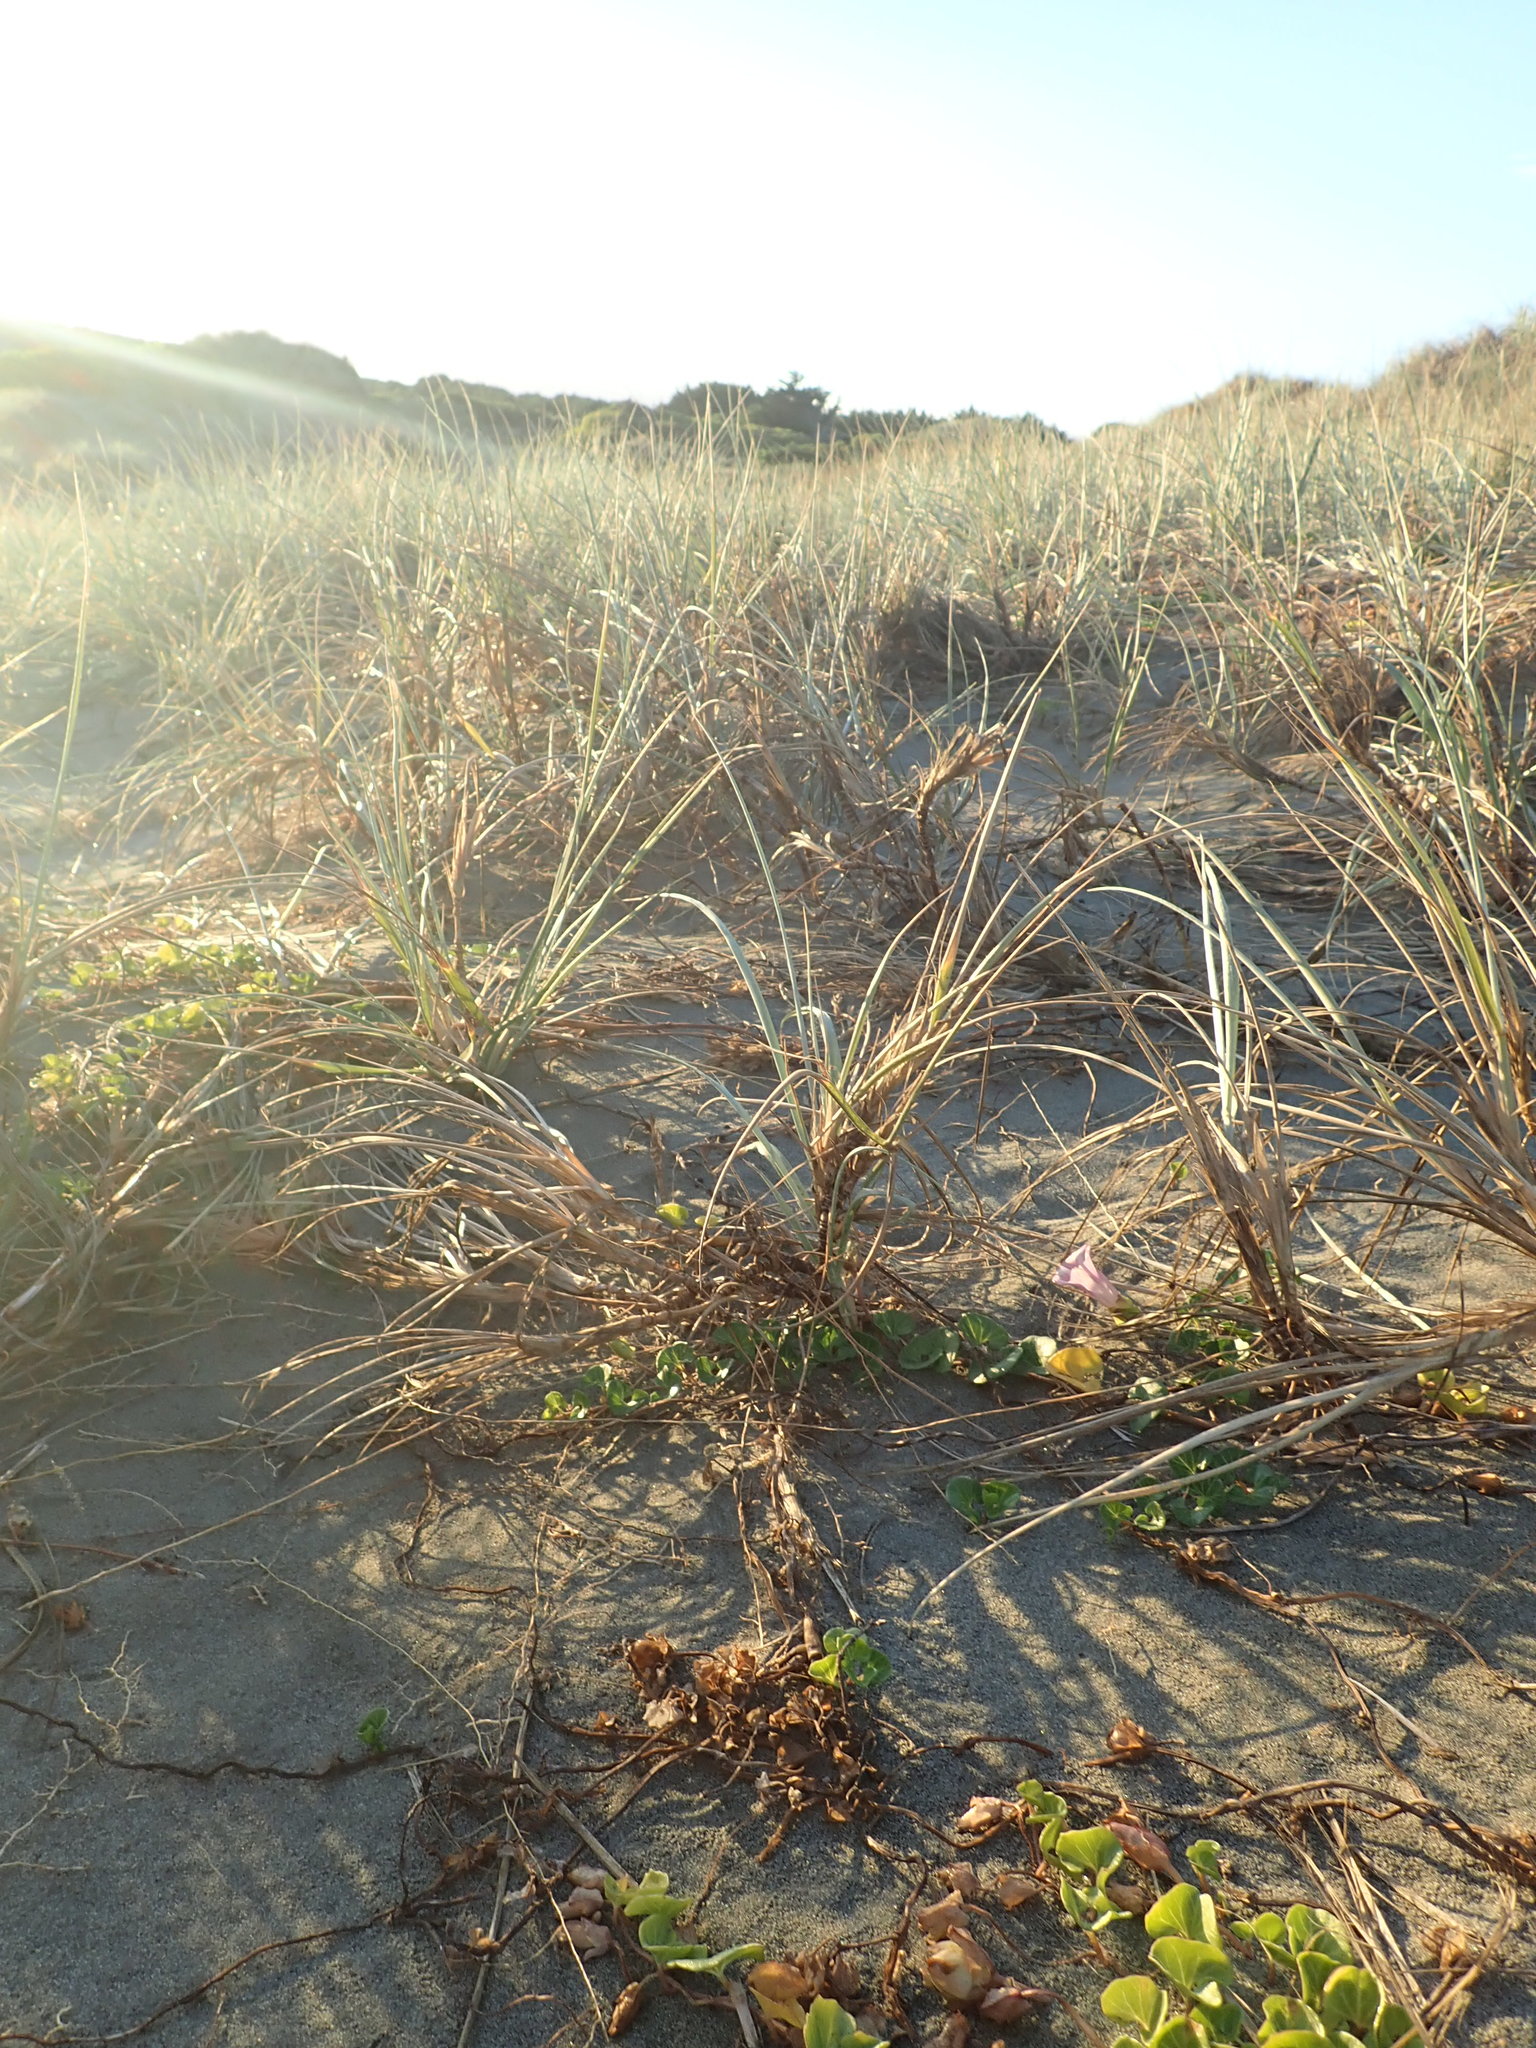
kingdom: Plantae
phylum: Tracheophyta
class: Magnoliopsida
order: Solanales
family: Convolvulaceae
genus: Calystegia
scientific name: Calystegia soldanella
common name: Sea bindweed
